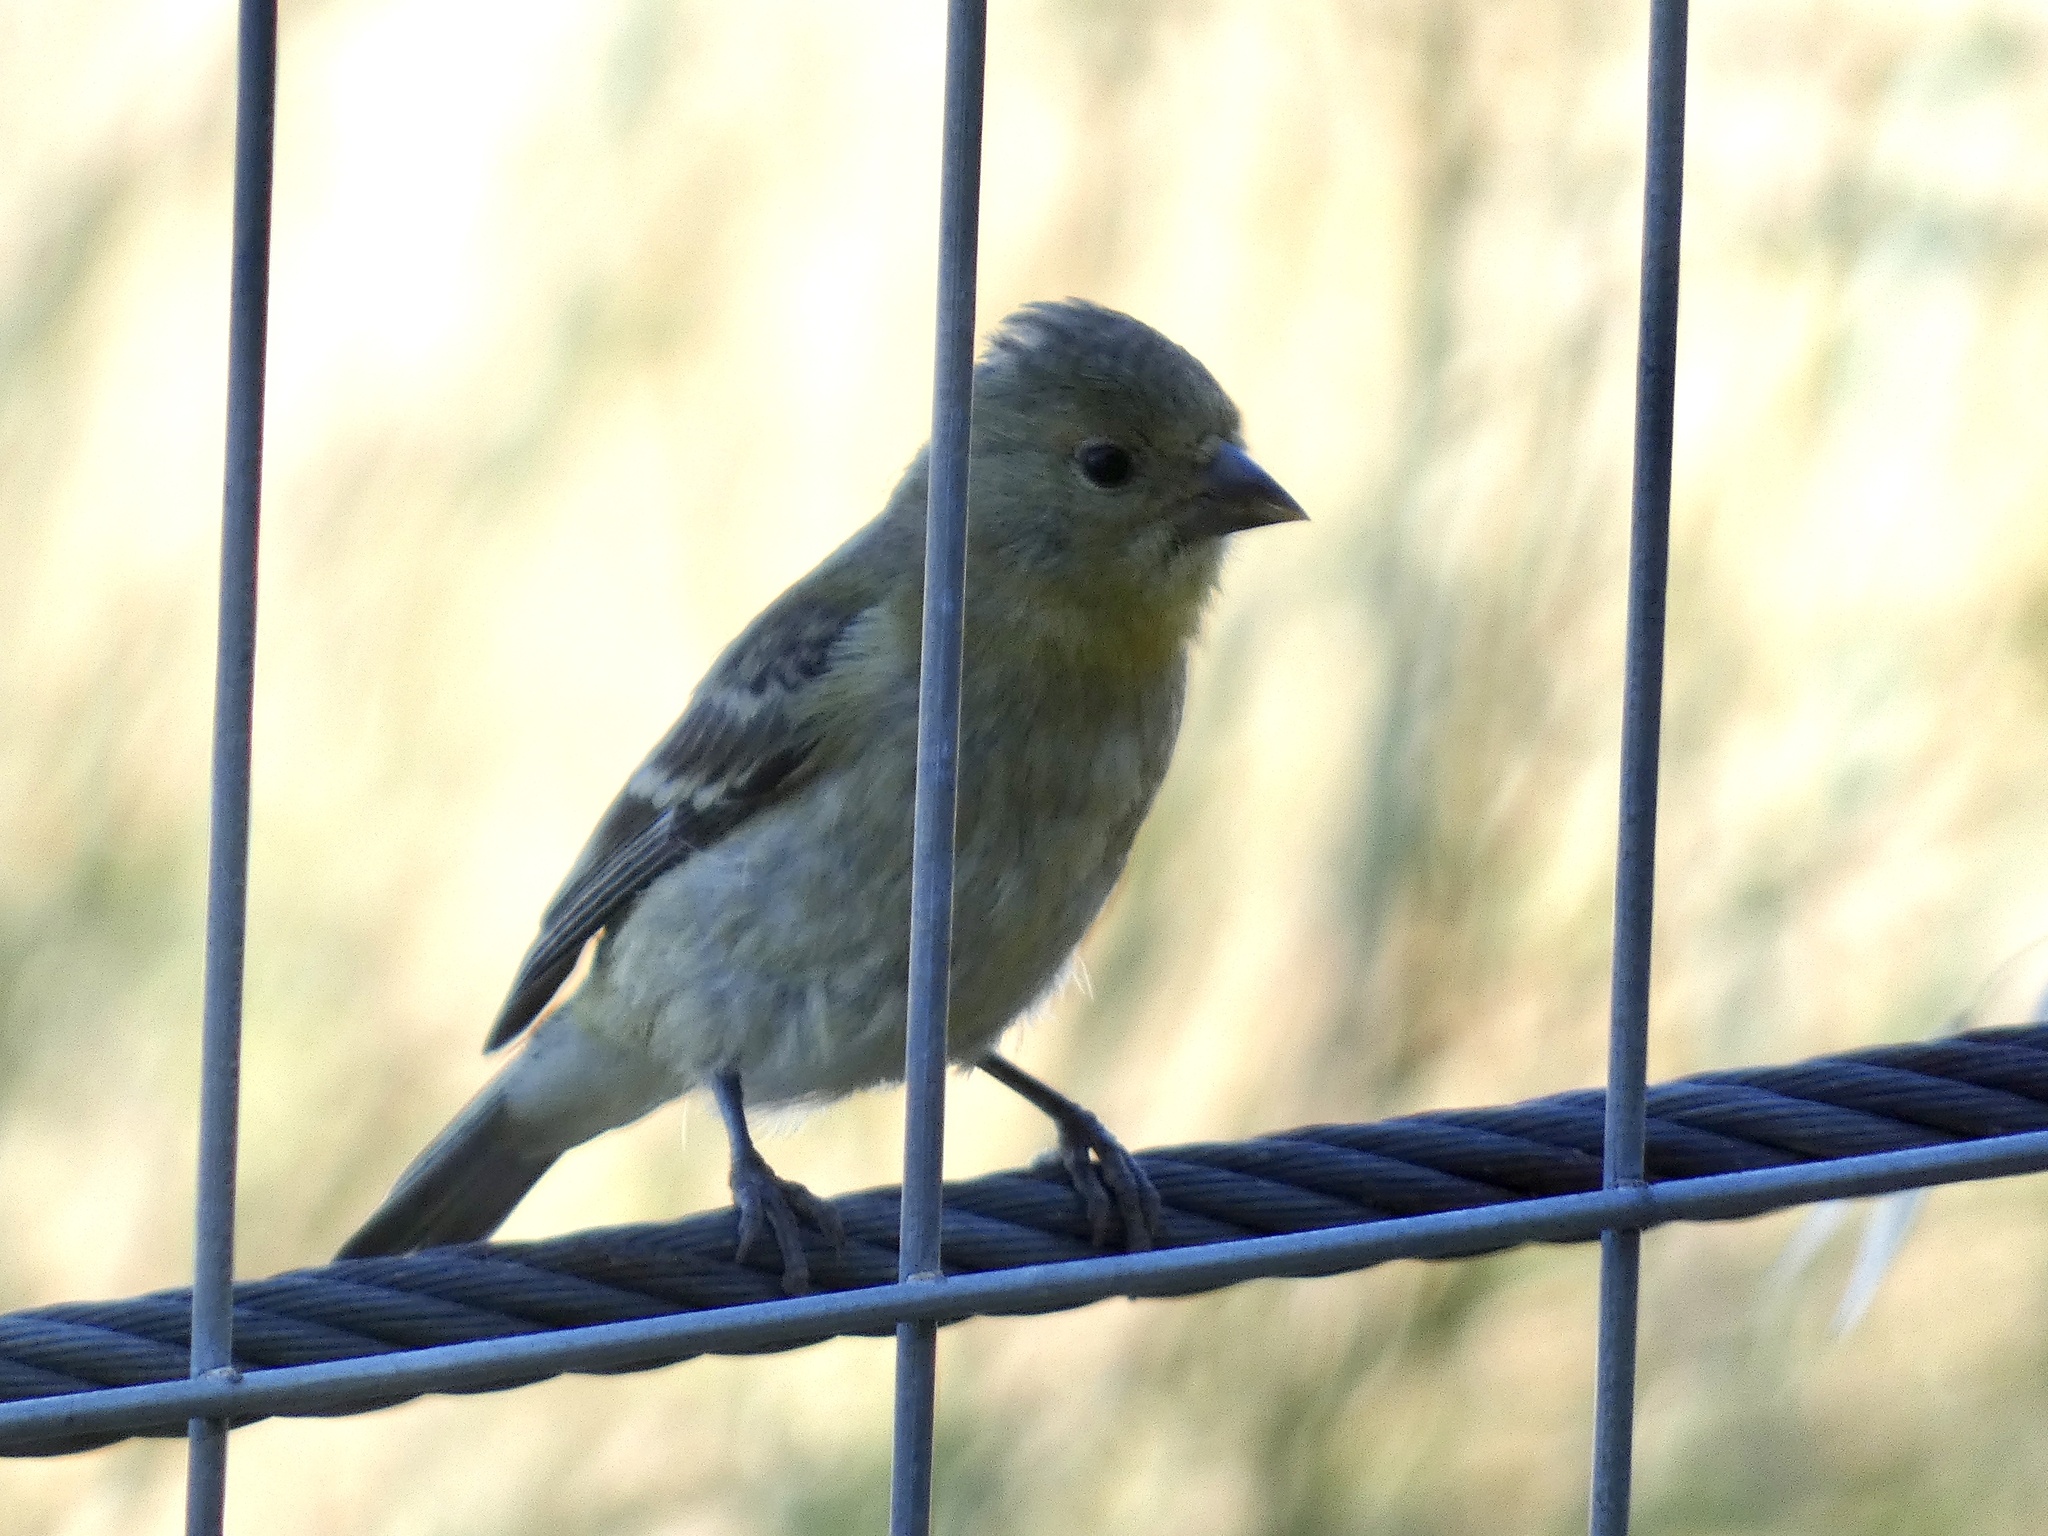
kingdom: Animalia
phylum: Chordata
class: Aves
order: Passeriformes
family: Fringillidae
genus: Spinus
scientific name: Spinus psaltria
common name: Lesser goldfinch
